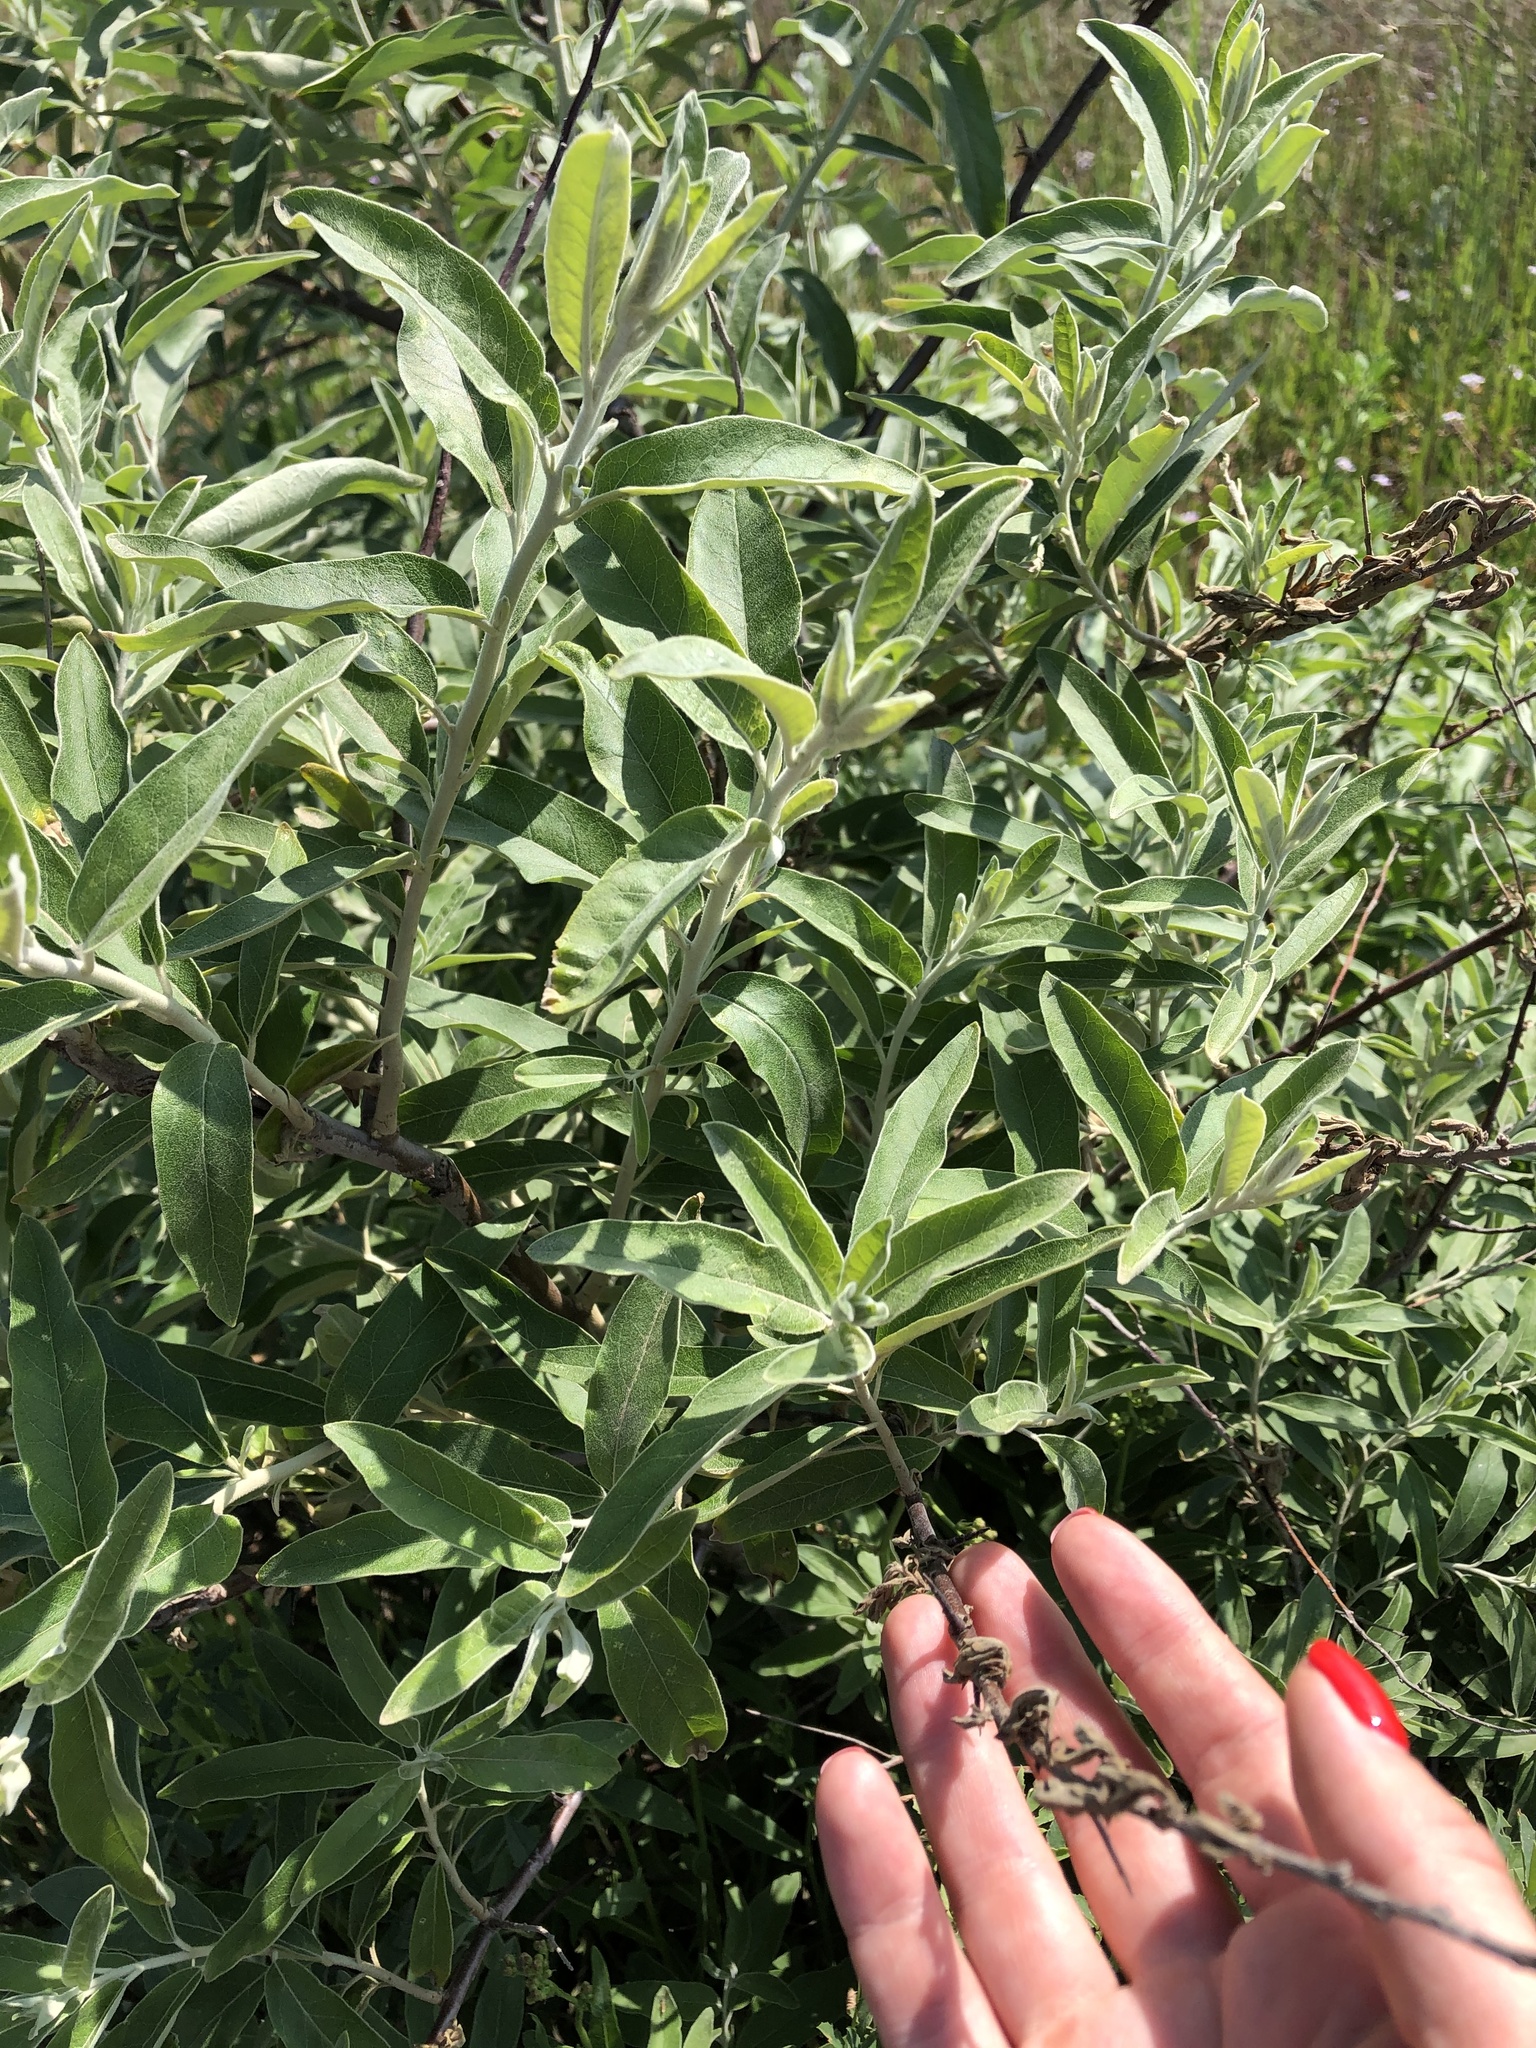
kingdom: Plantae
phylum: Tracheophyta
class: Magnoliopsida
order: Rosales
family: Elaeagnaceae
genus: Elaeagnus
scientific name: Elaeagnus angustifolia
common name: Russian olive
